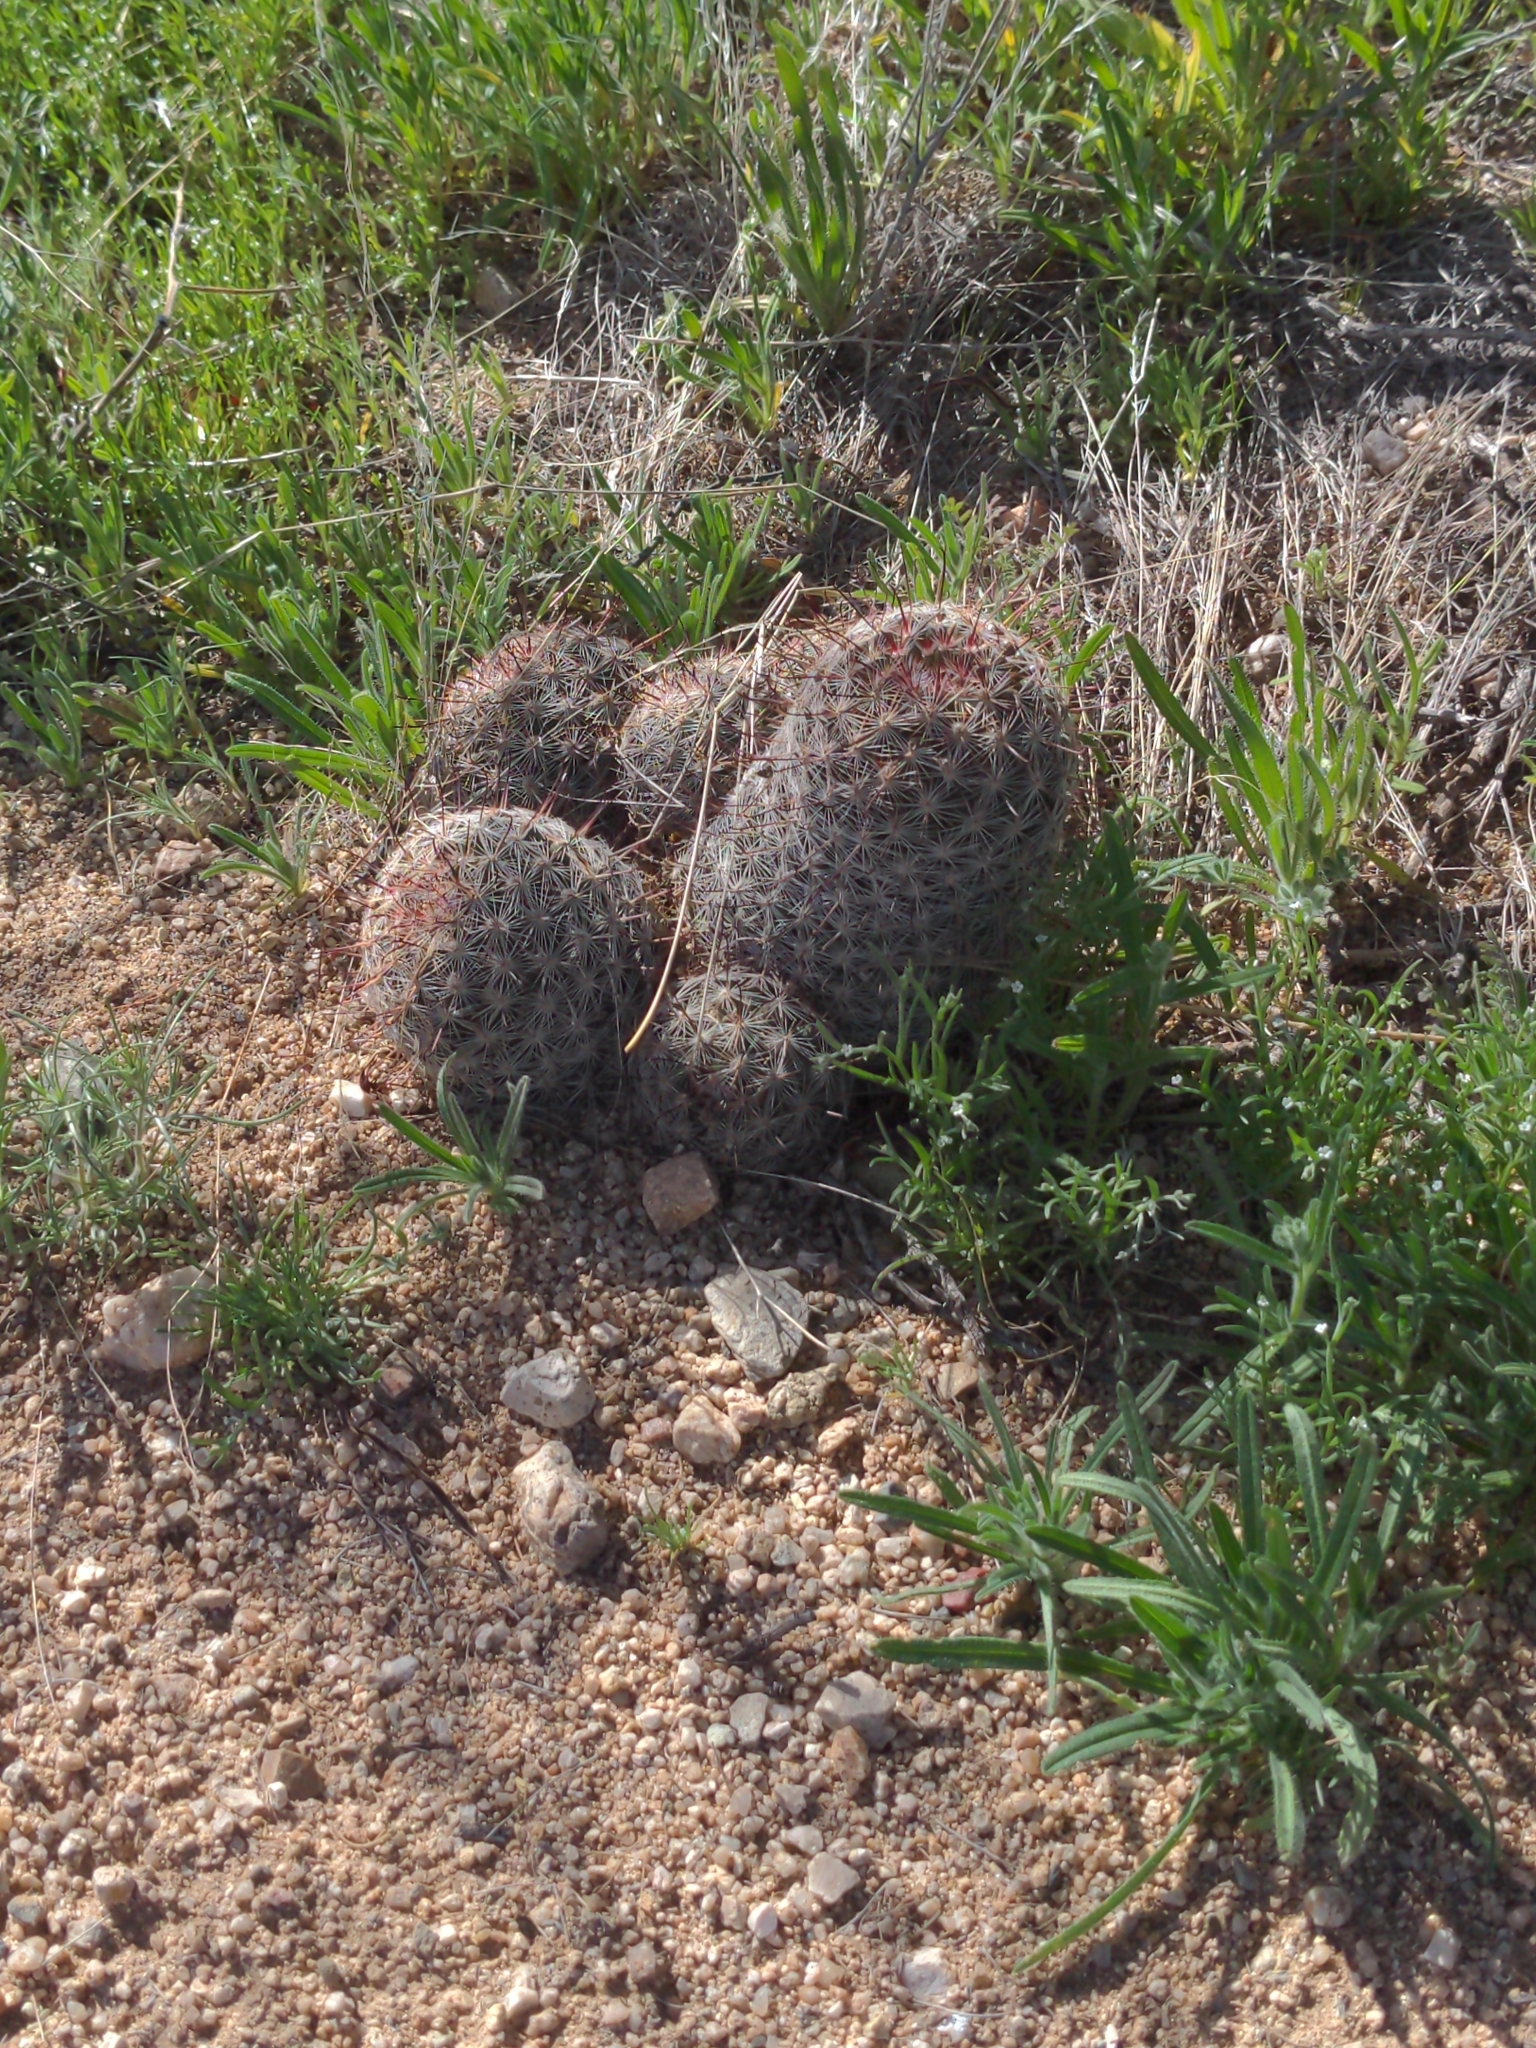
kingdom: Plantae
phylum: Tracheophyta
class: Magnoliopsida
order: Caryophyllales
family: Cactaceae
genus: Cochemiea
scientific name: Cochemiea grahamii
